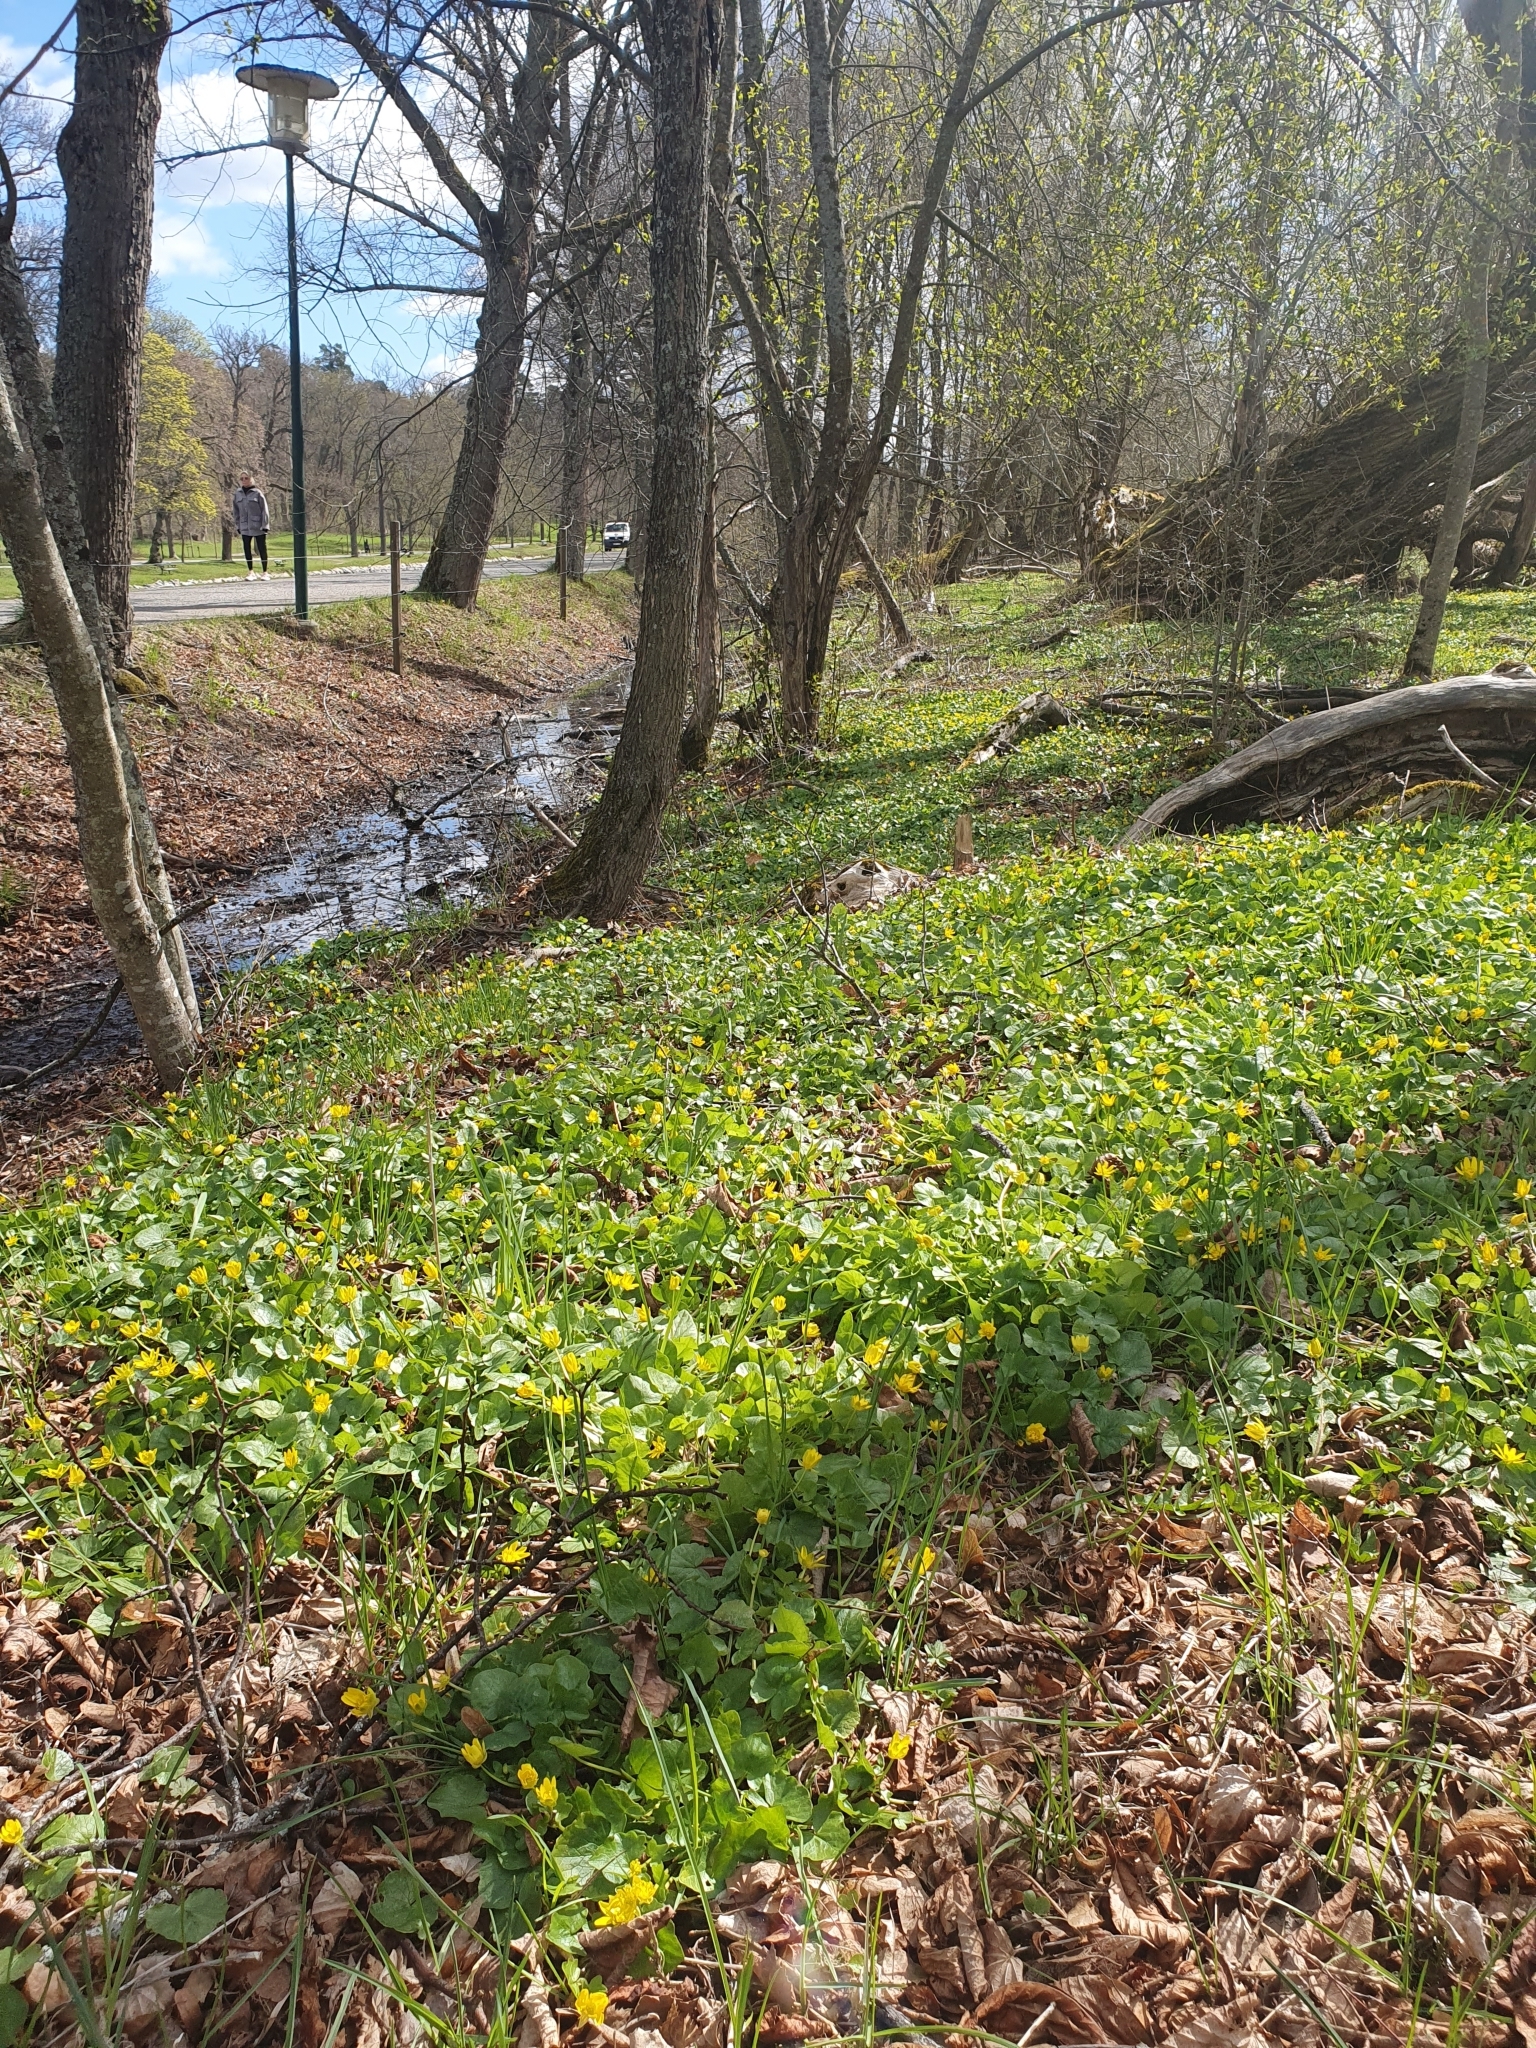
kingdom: Plantae
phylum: Tracheophyta
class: Magnoliopsida
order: Ranunculales
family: Ranunculaceae
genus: Ficaria
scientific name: Ficaria verna
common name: Lesser celandine
